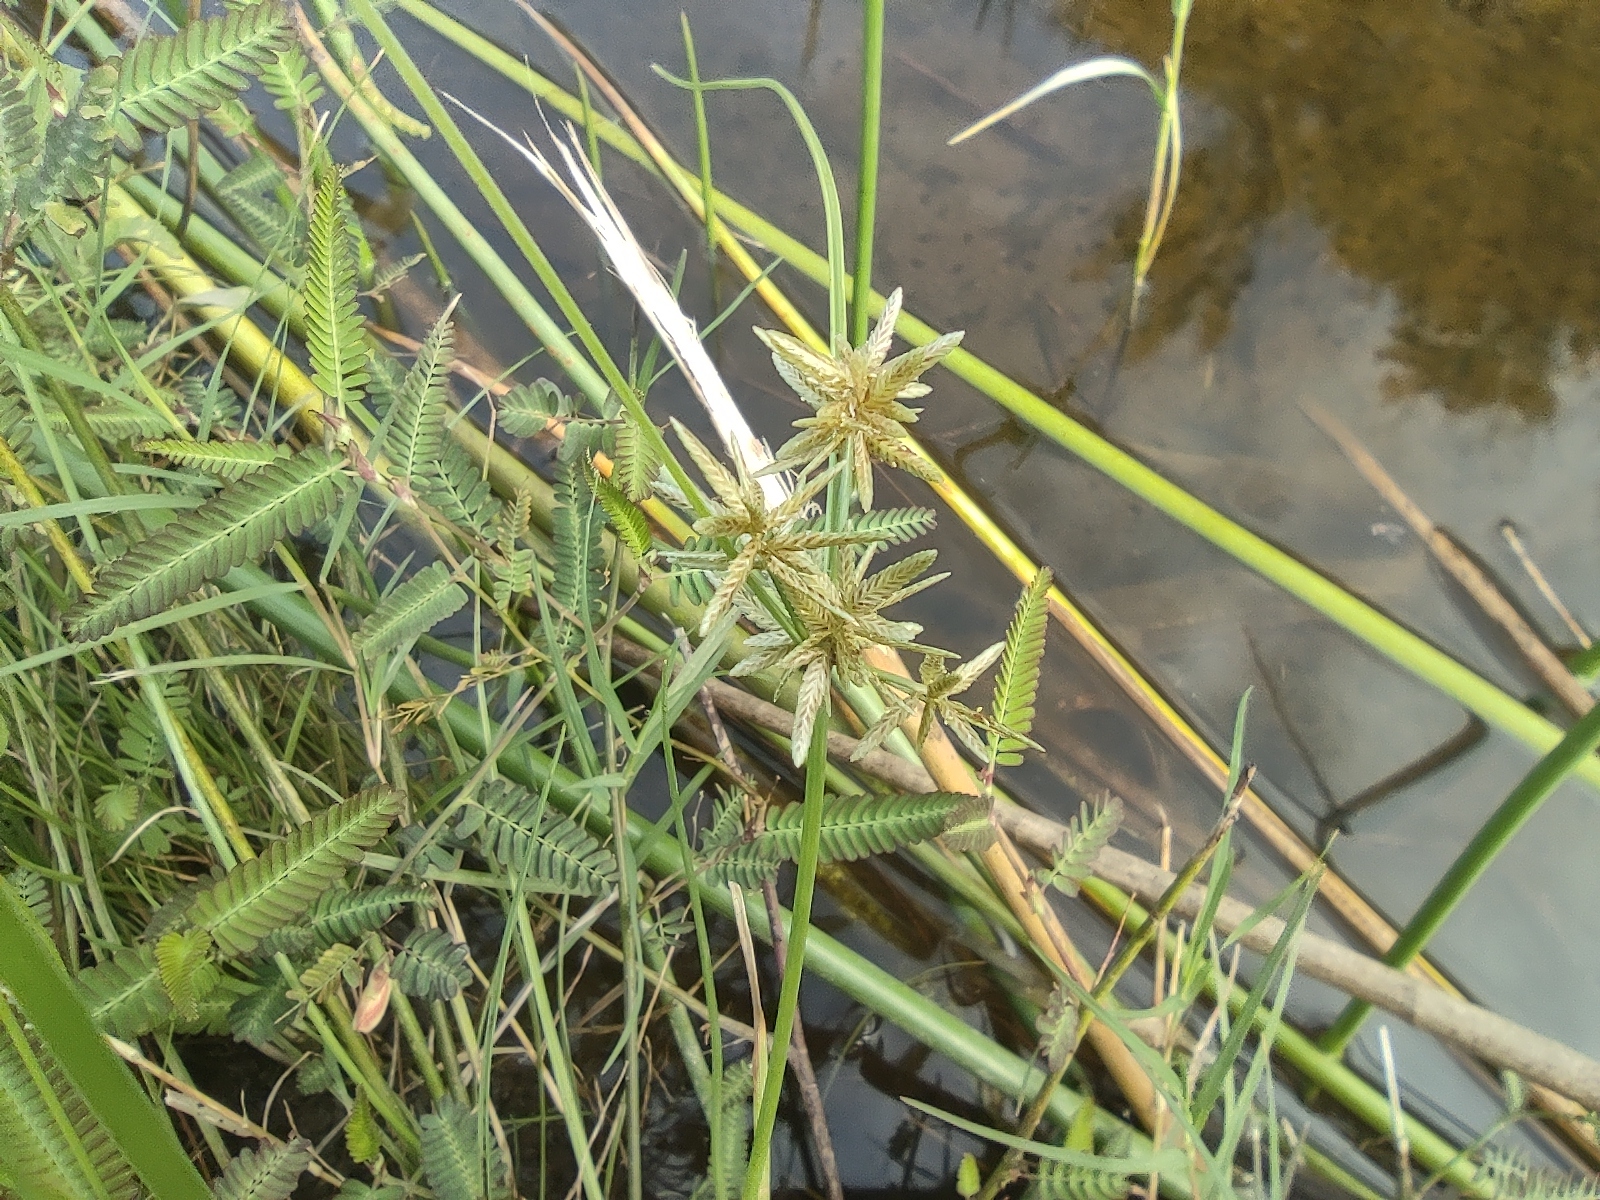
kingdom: Plantae
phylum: Tracheophyta
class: Liliopsida
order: Poales
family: Cyperaceae
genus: Cyperus
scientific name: Cyperus flavidus
